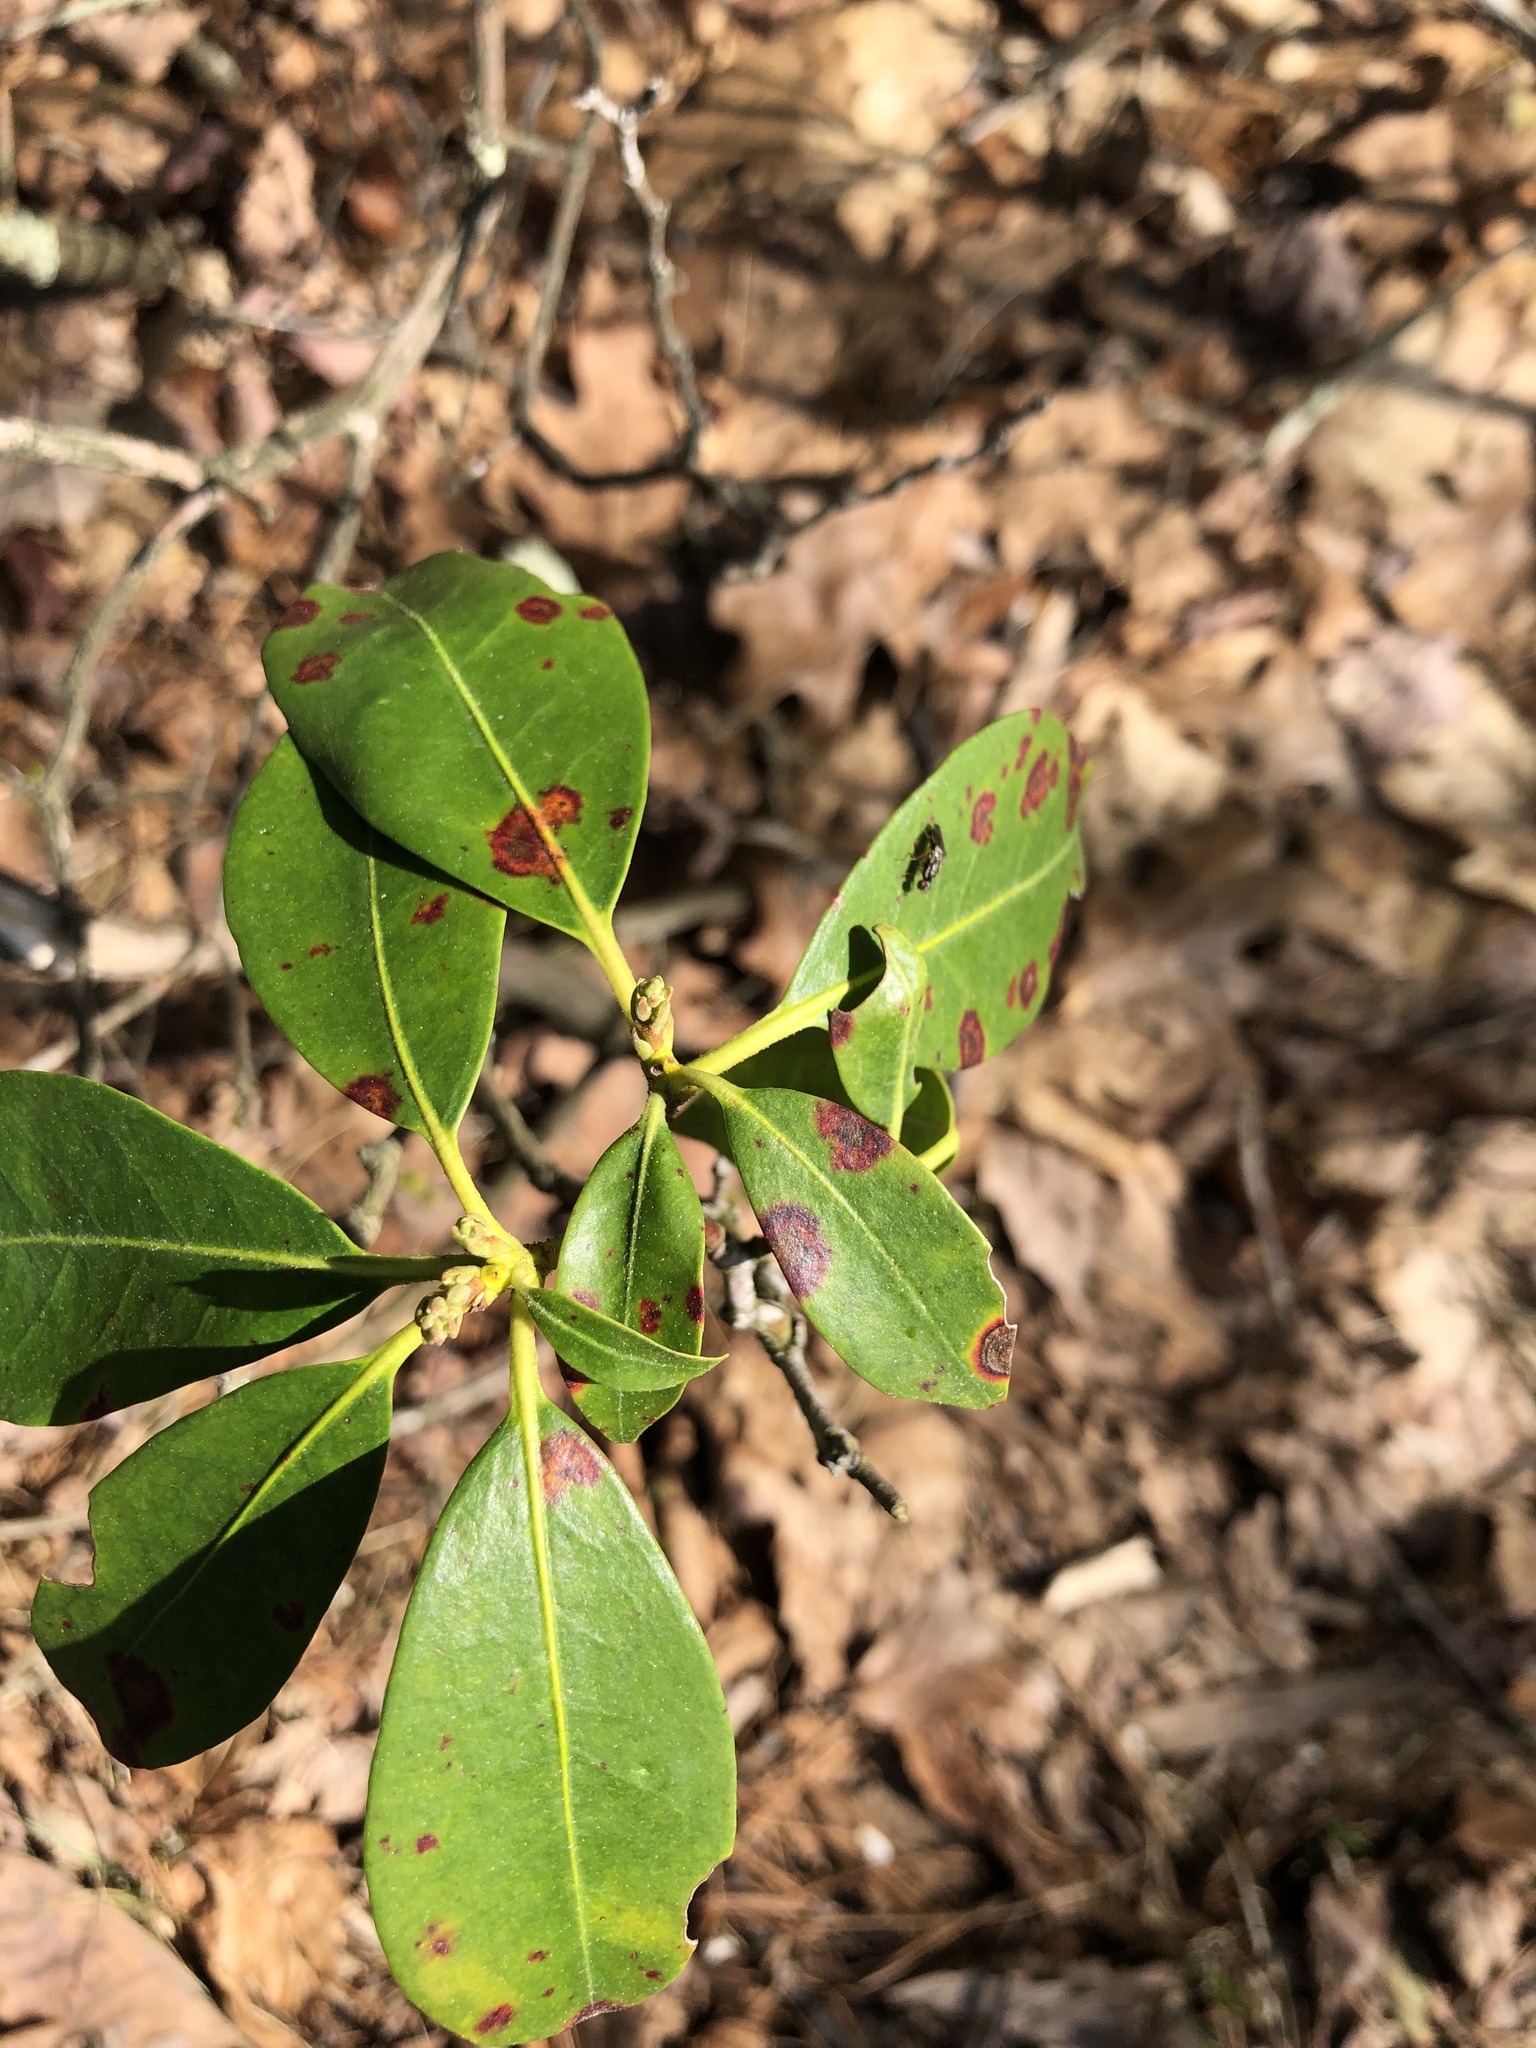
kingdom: Plantae
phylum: Tracheophyta
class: Magnoliopsida
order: Ericales
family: Ericaceae
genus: Kalmia
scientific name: Kalmia latifolia
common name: Mountain-laurel
